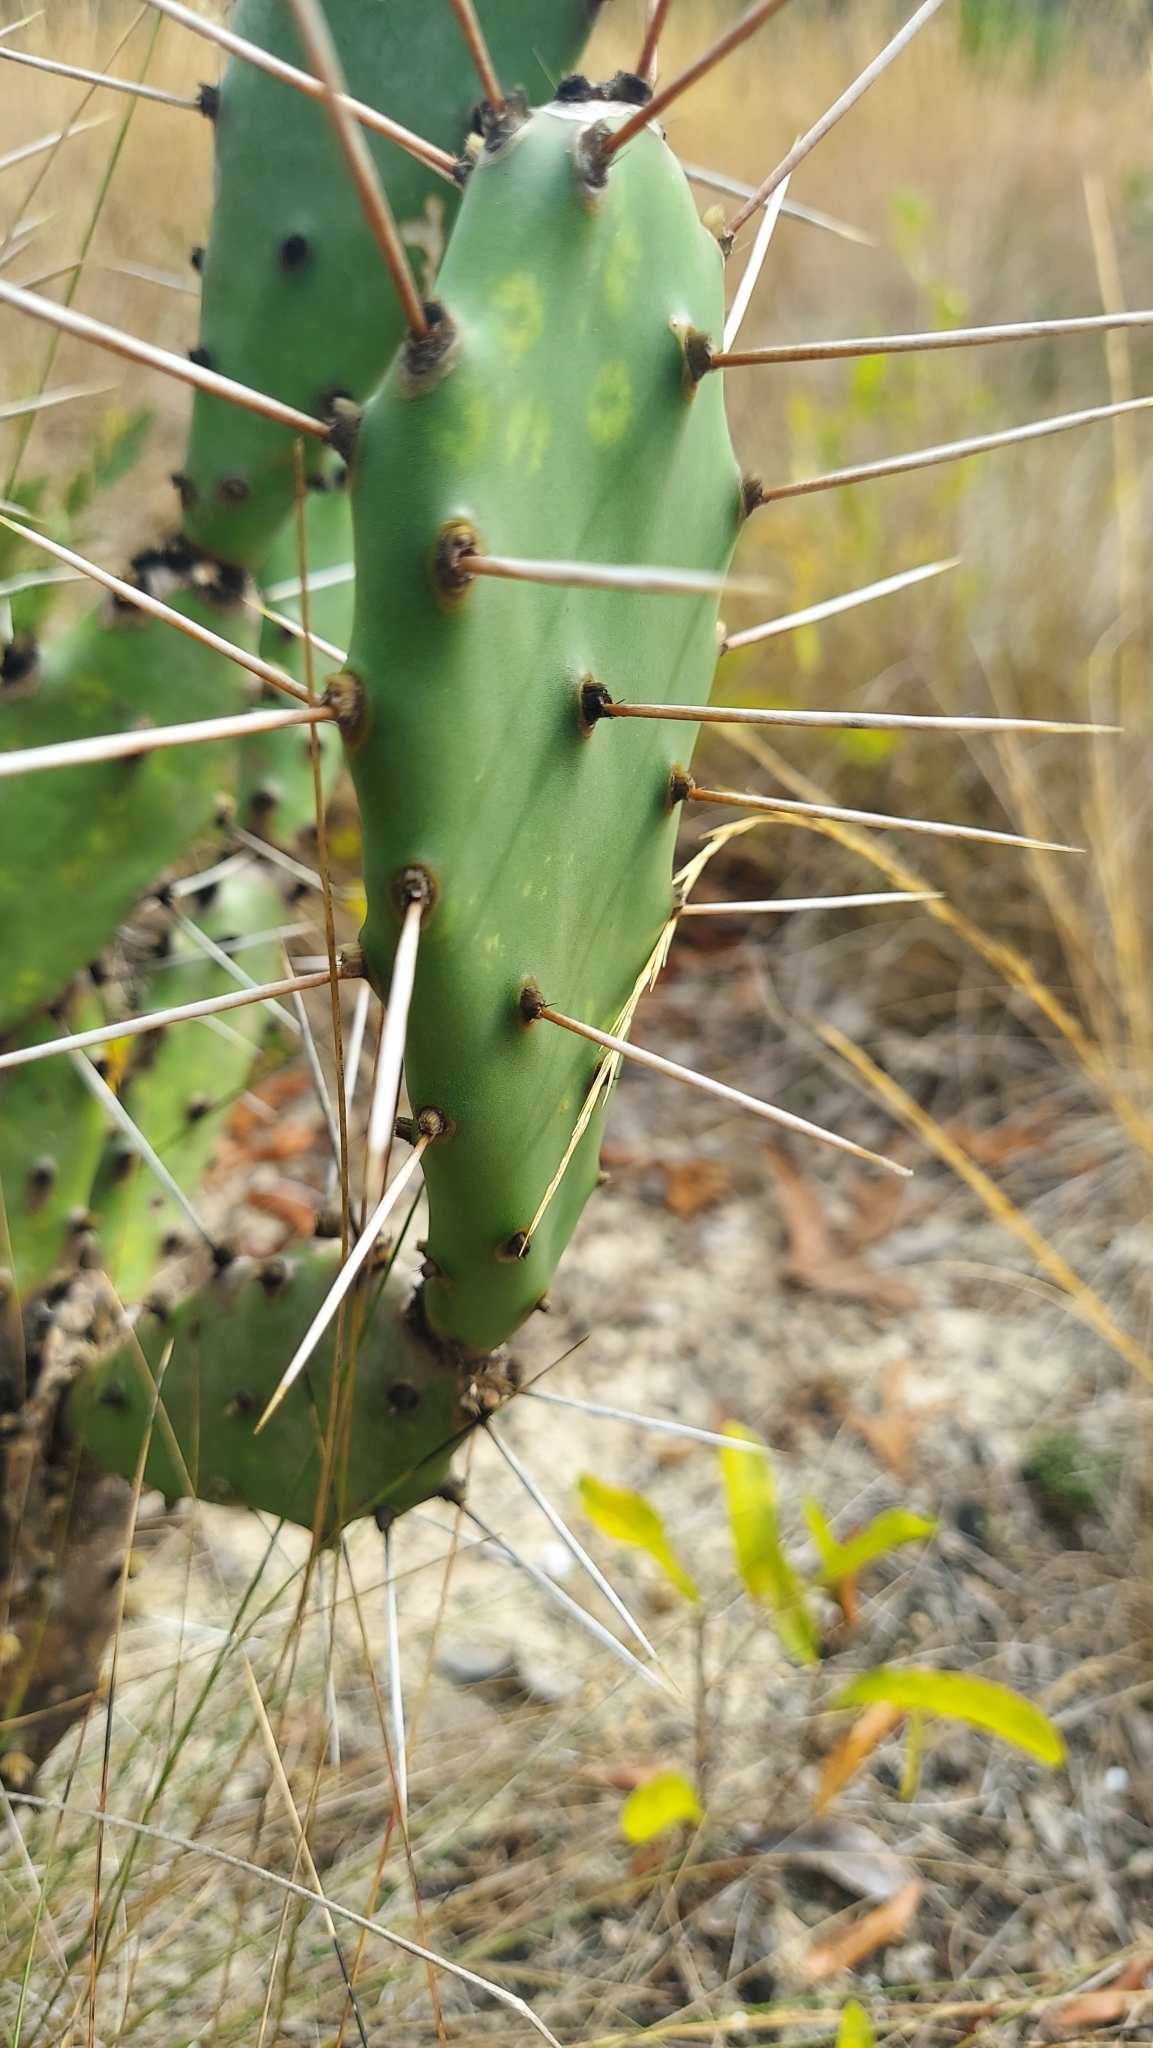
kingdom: Plantae
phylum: Tracheophyta
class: Magnoliopsida
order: Caryophyllales
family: Cactaceae
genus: Opuntia
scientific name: Opuntia austrina
